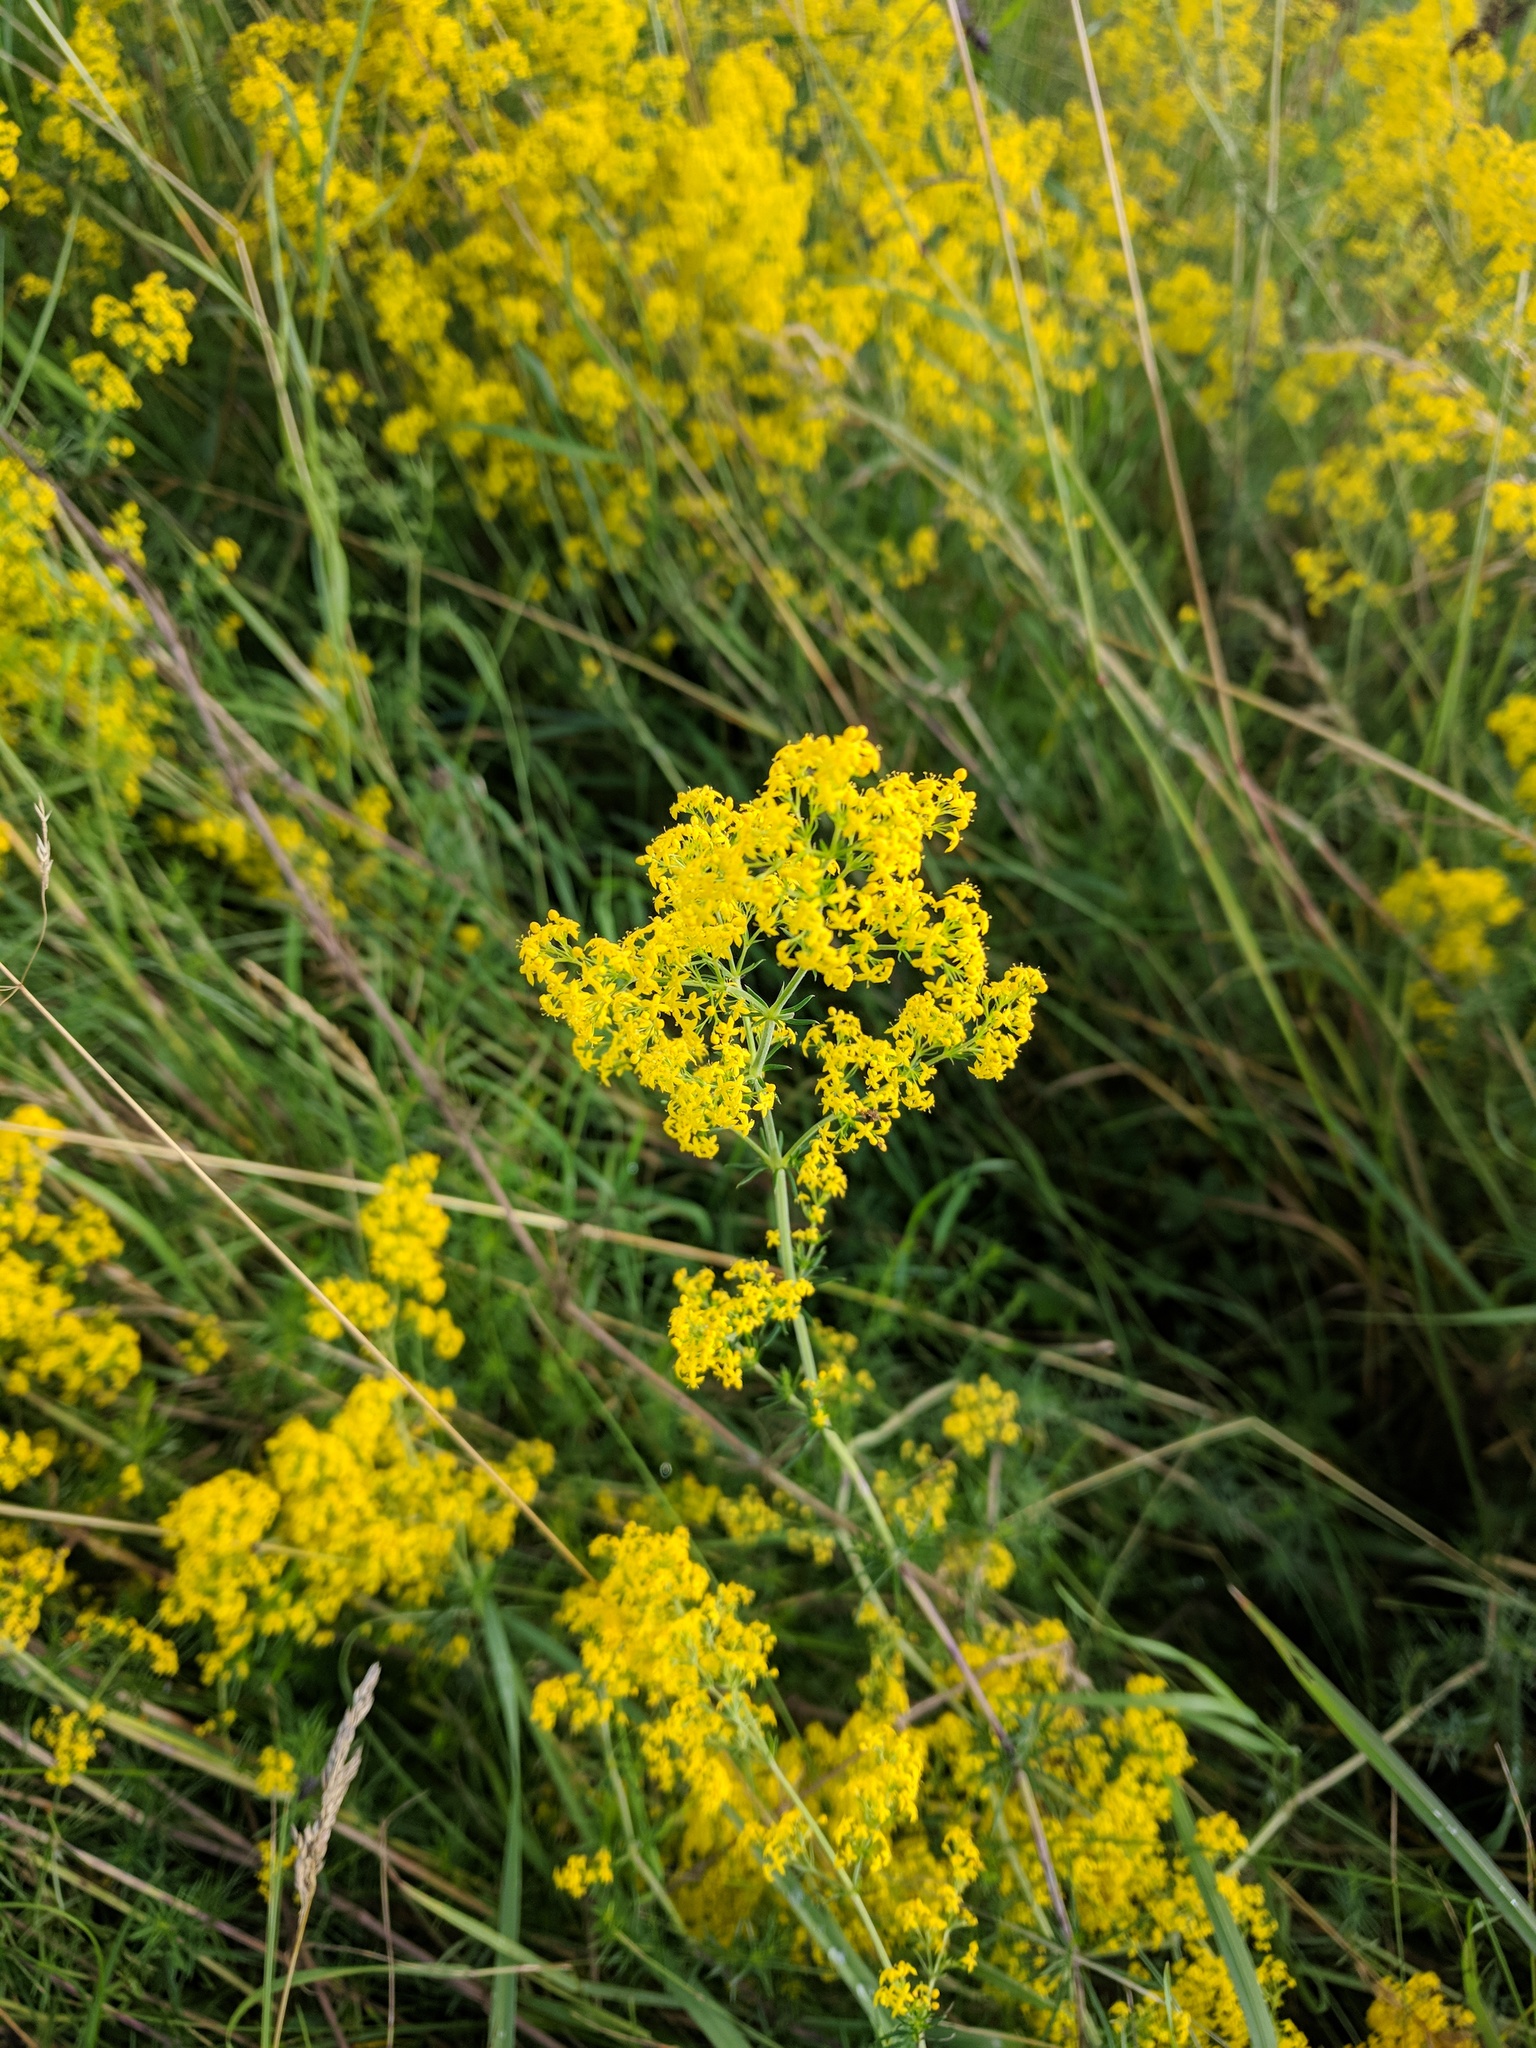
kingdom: Plantae
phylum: Tracheophyta
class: Magnoliopsida
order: Gentianales
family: Rubiaceae
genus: Galium
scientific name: Galium verum
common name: Lady's bedstraw
